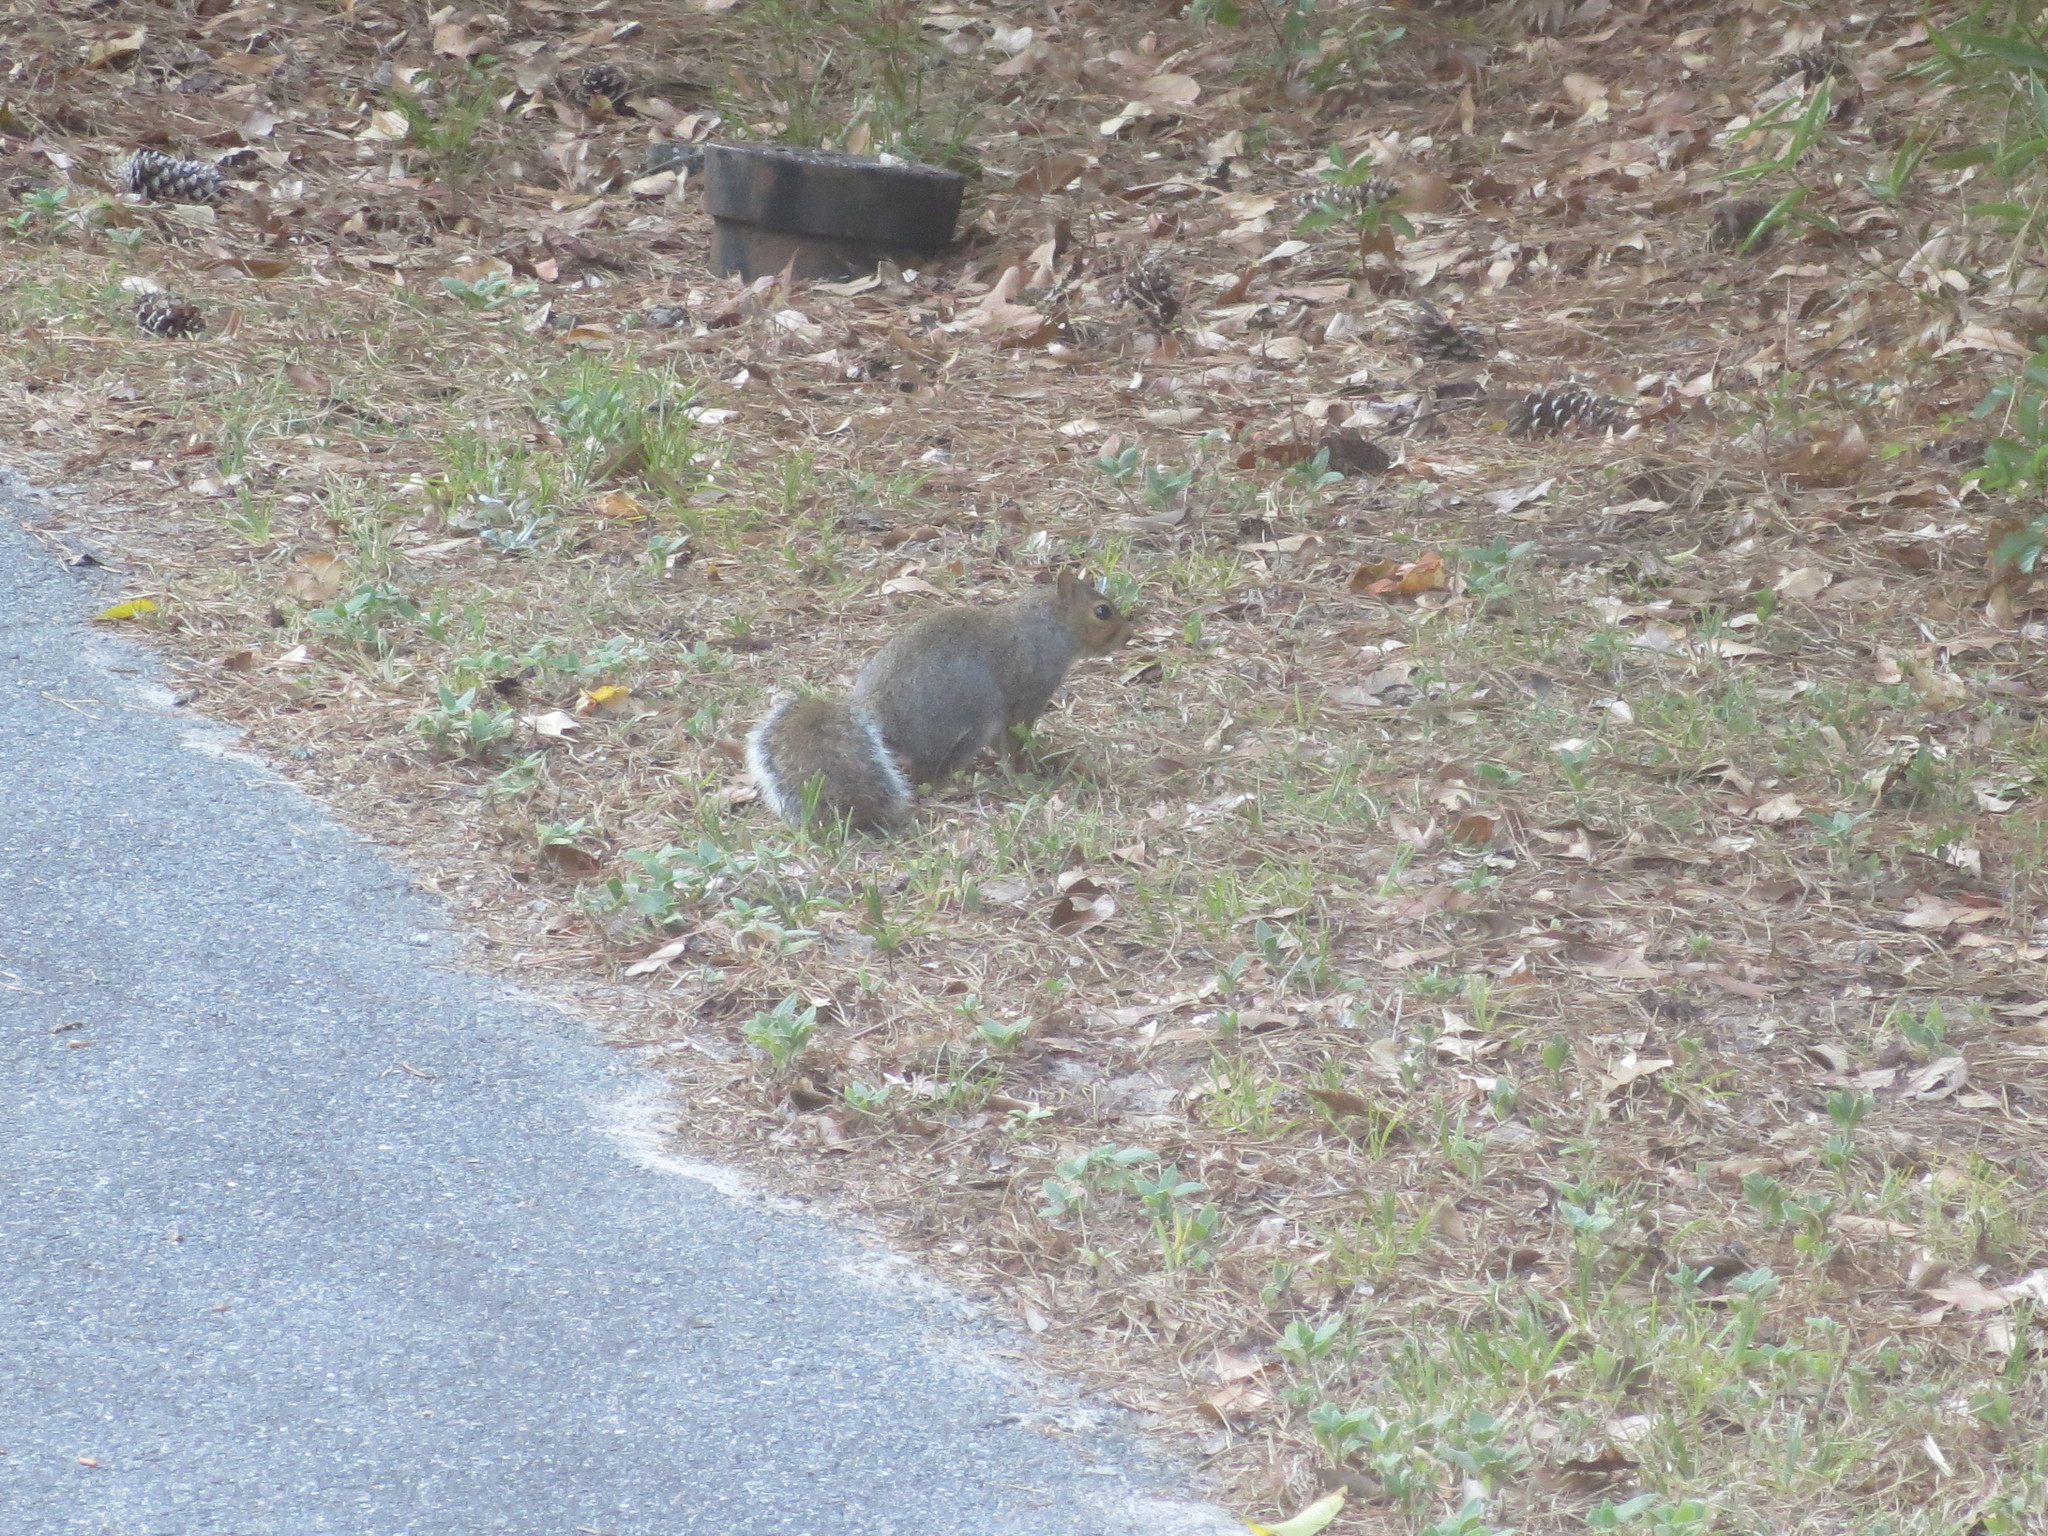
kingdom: Animalia
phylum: Chordata
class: Mammalia
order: Rodentia
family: Sciuridae
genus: Sciurus
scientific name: Sciurus carolinensis
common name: Eastern gray squirrel
